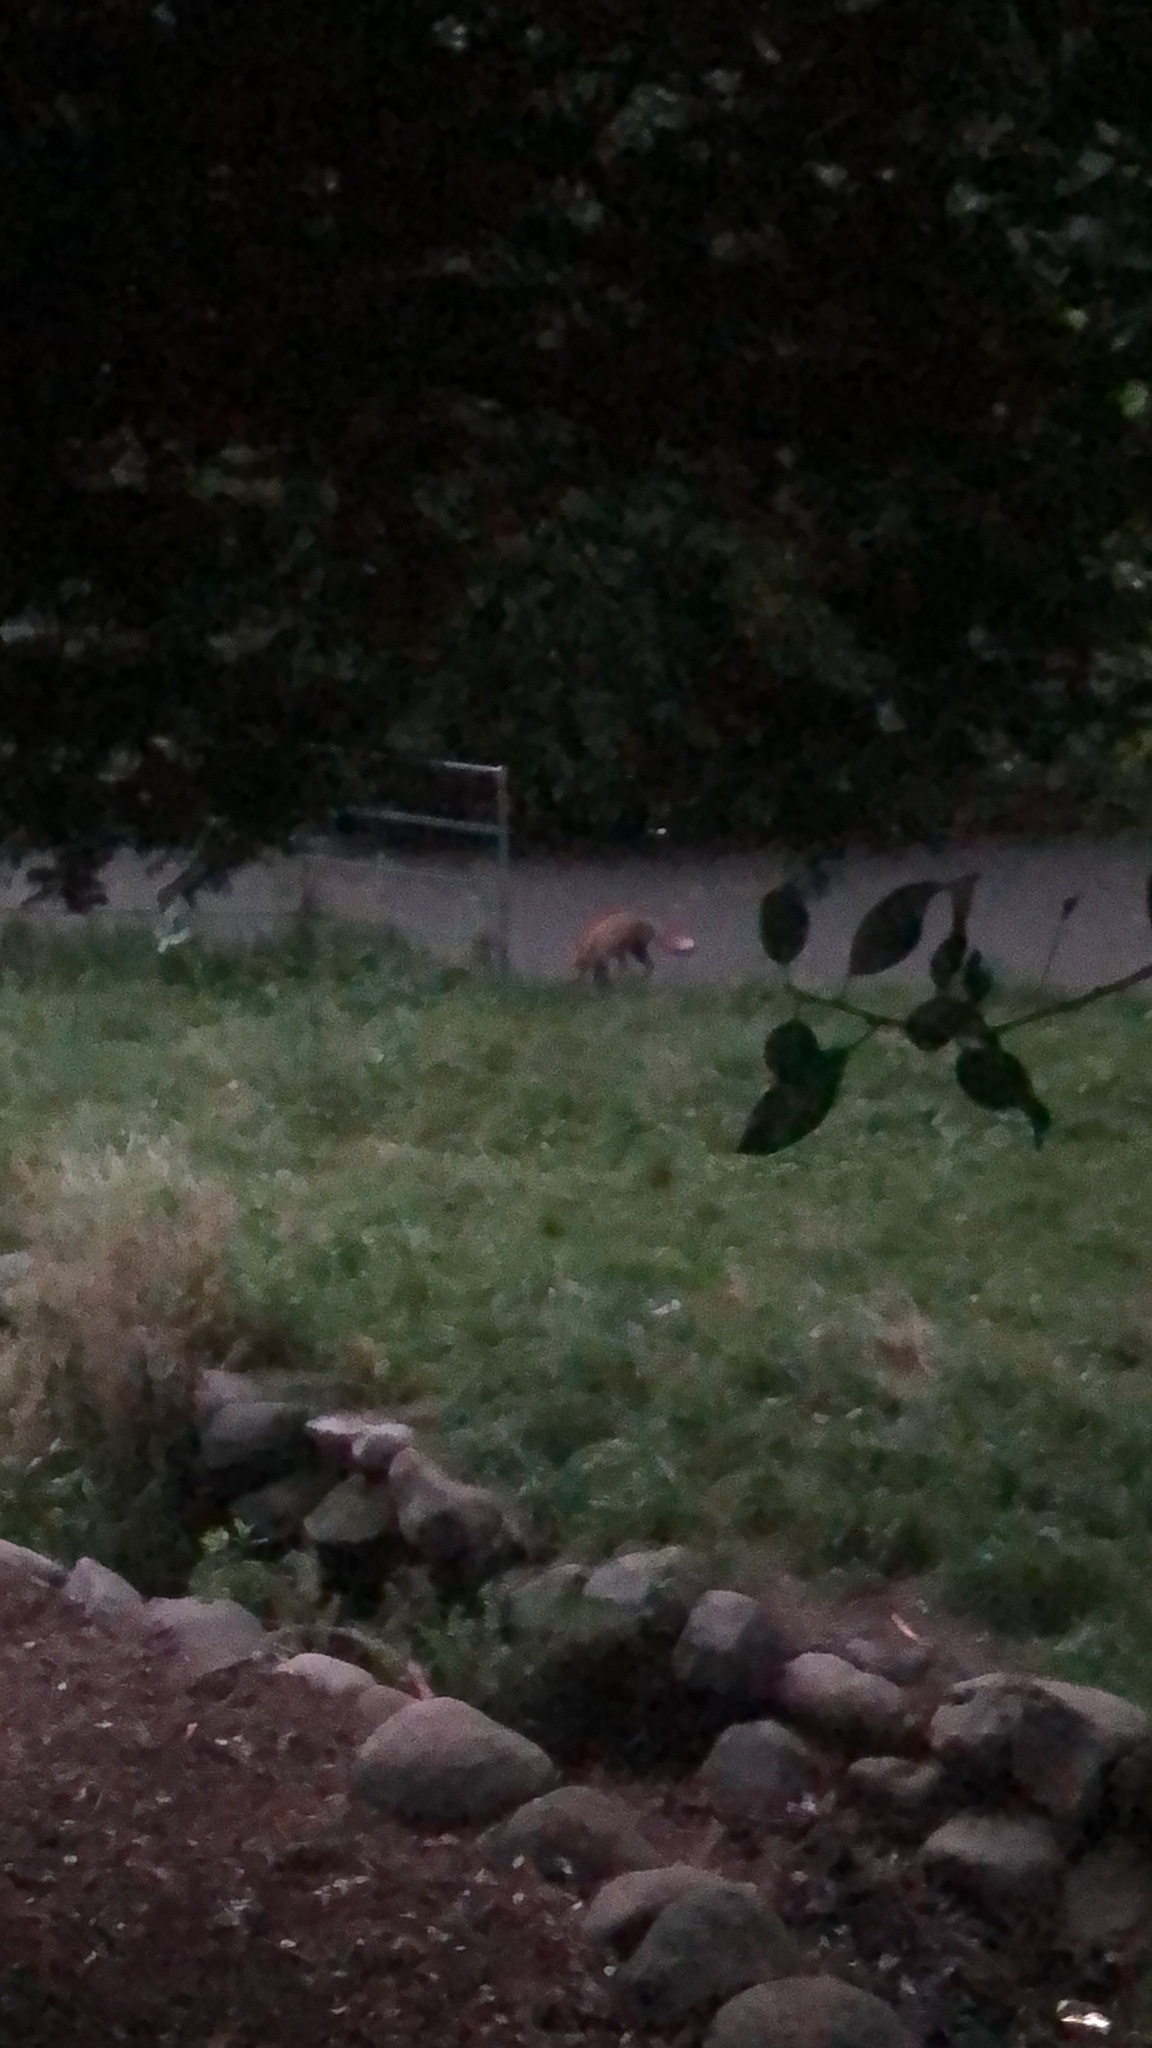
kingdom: Animalia
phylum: Chordata
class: Mammalia
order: Carnivora
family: Canidae
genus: Vulpes
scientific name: Vulpes vulpes
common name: Red fox
